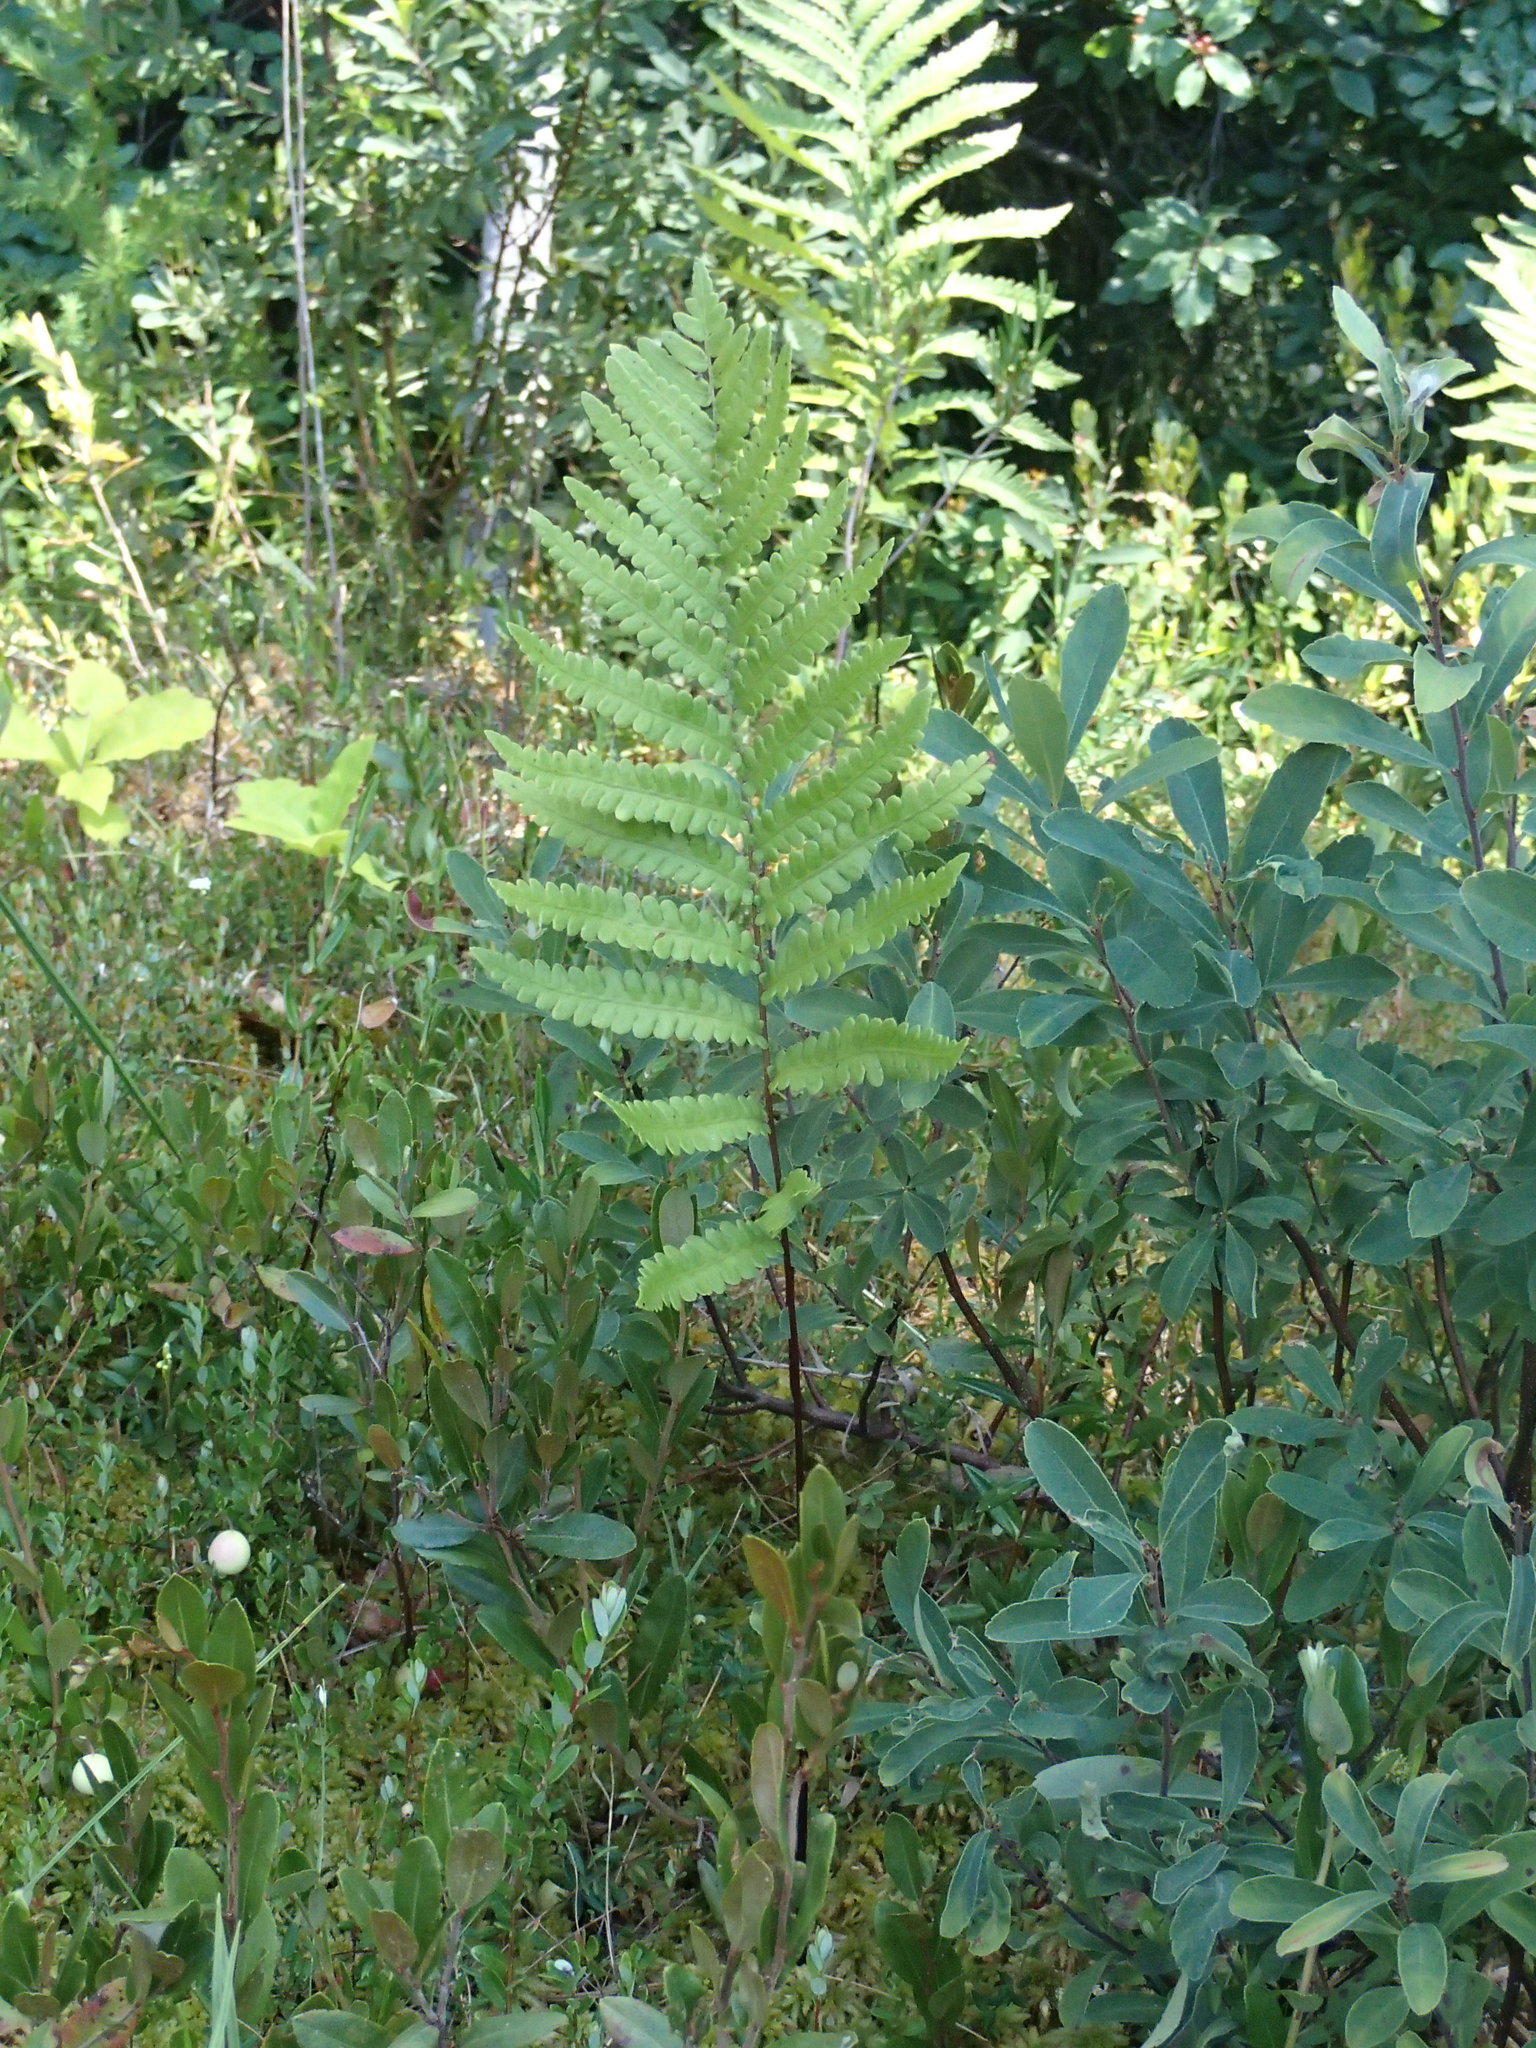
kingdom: Plantae
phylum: Tracheophyta
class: Polypodiopsida
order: Polypodiales
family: Blechnaceae
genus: Anchistea
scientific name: Anchistea virginica
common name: Virginia chain fern
